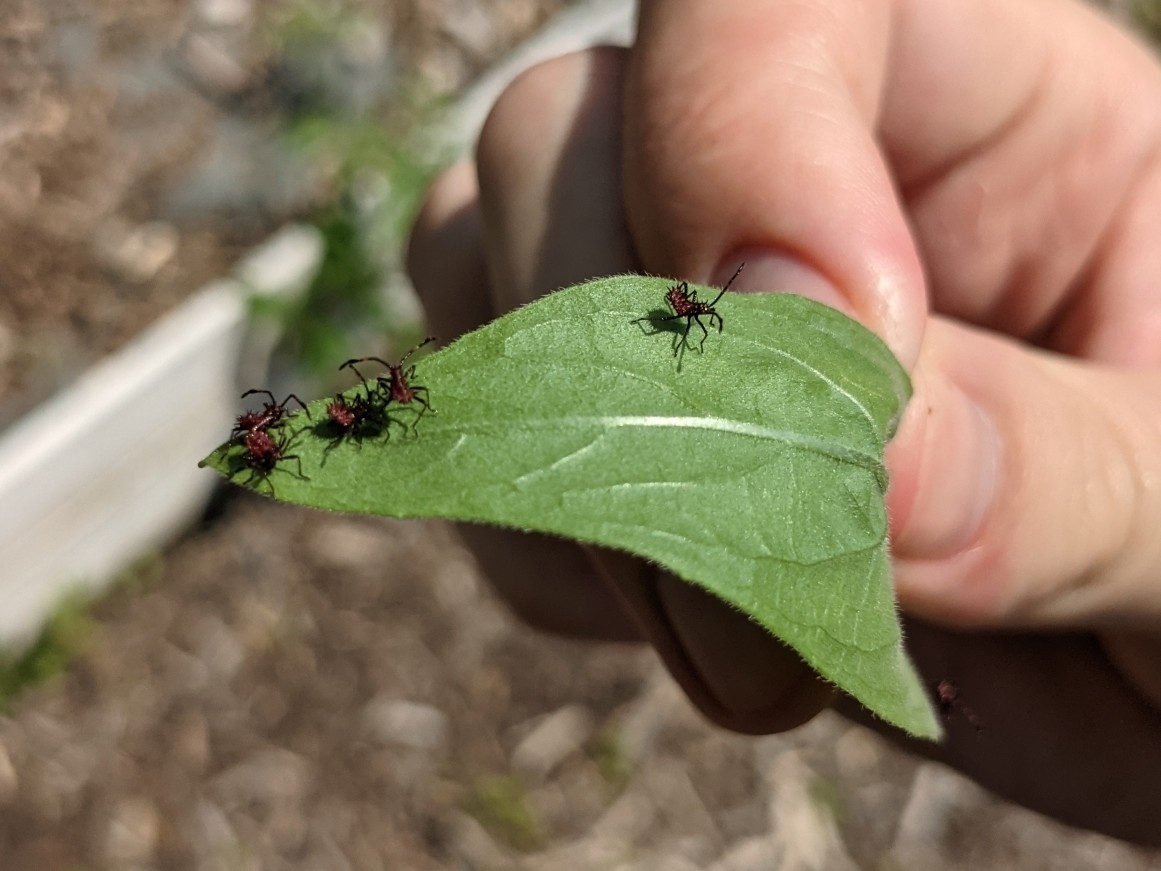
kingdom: Animalia
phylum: Arthropoda
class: Insecta
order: Hemiptera
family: Coreidae
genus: Euthochtha
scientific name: Euthochtha galeator
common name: Helmeted squash bug
